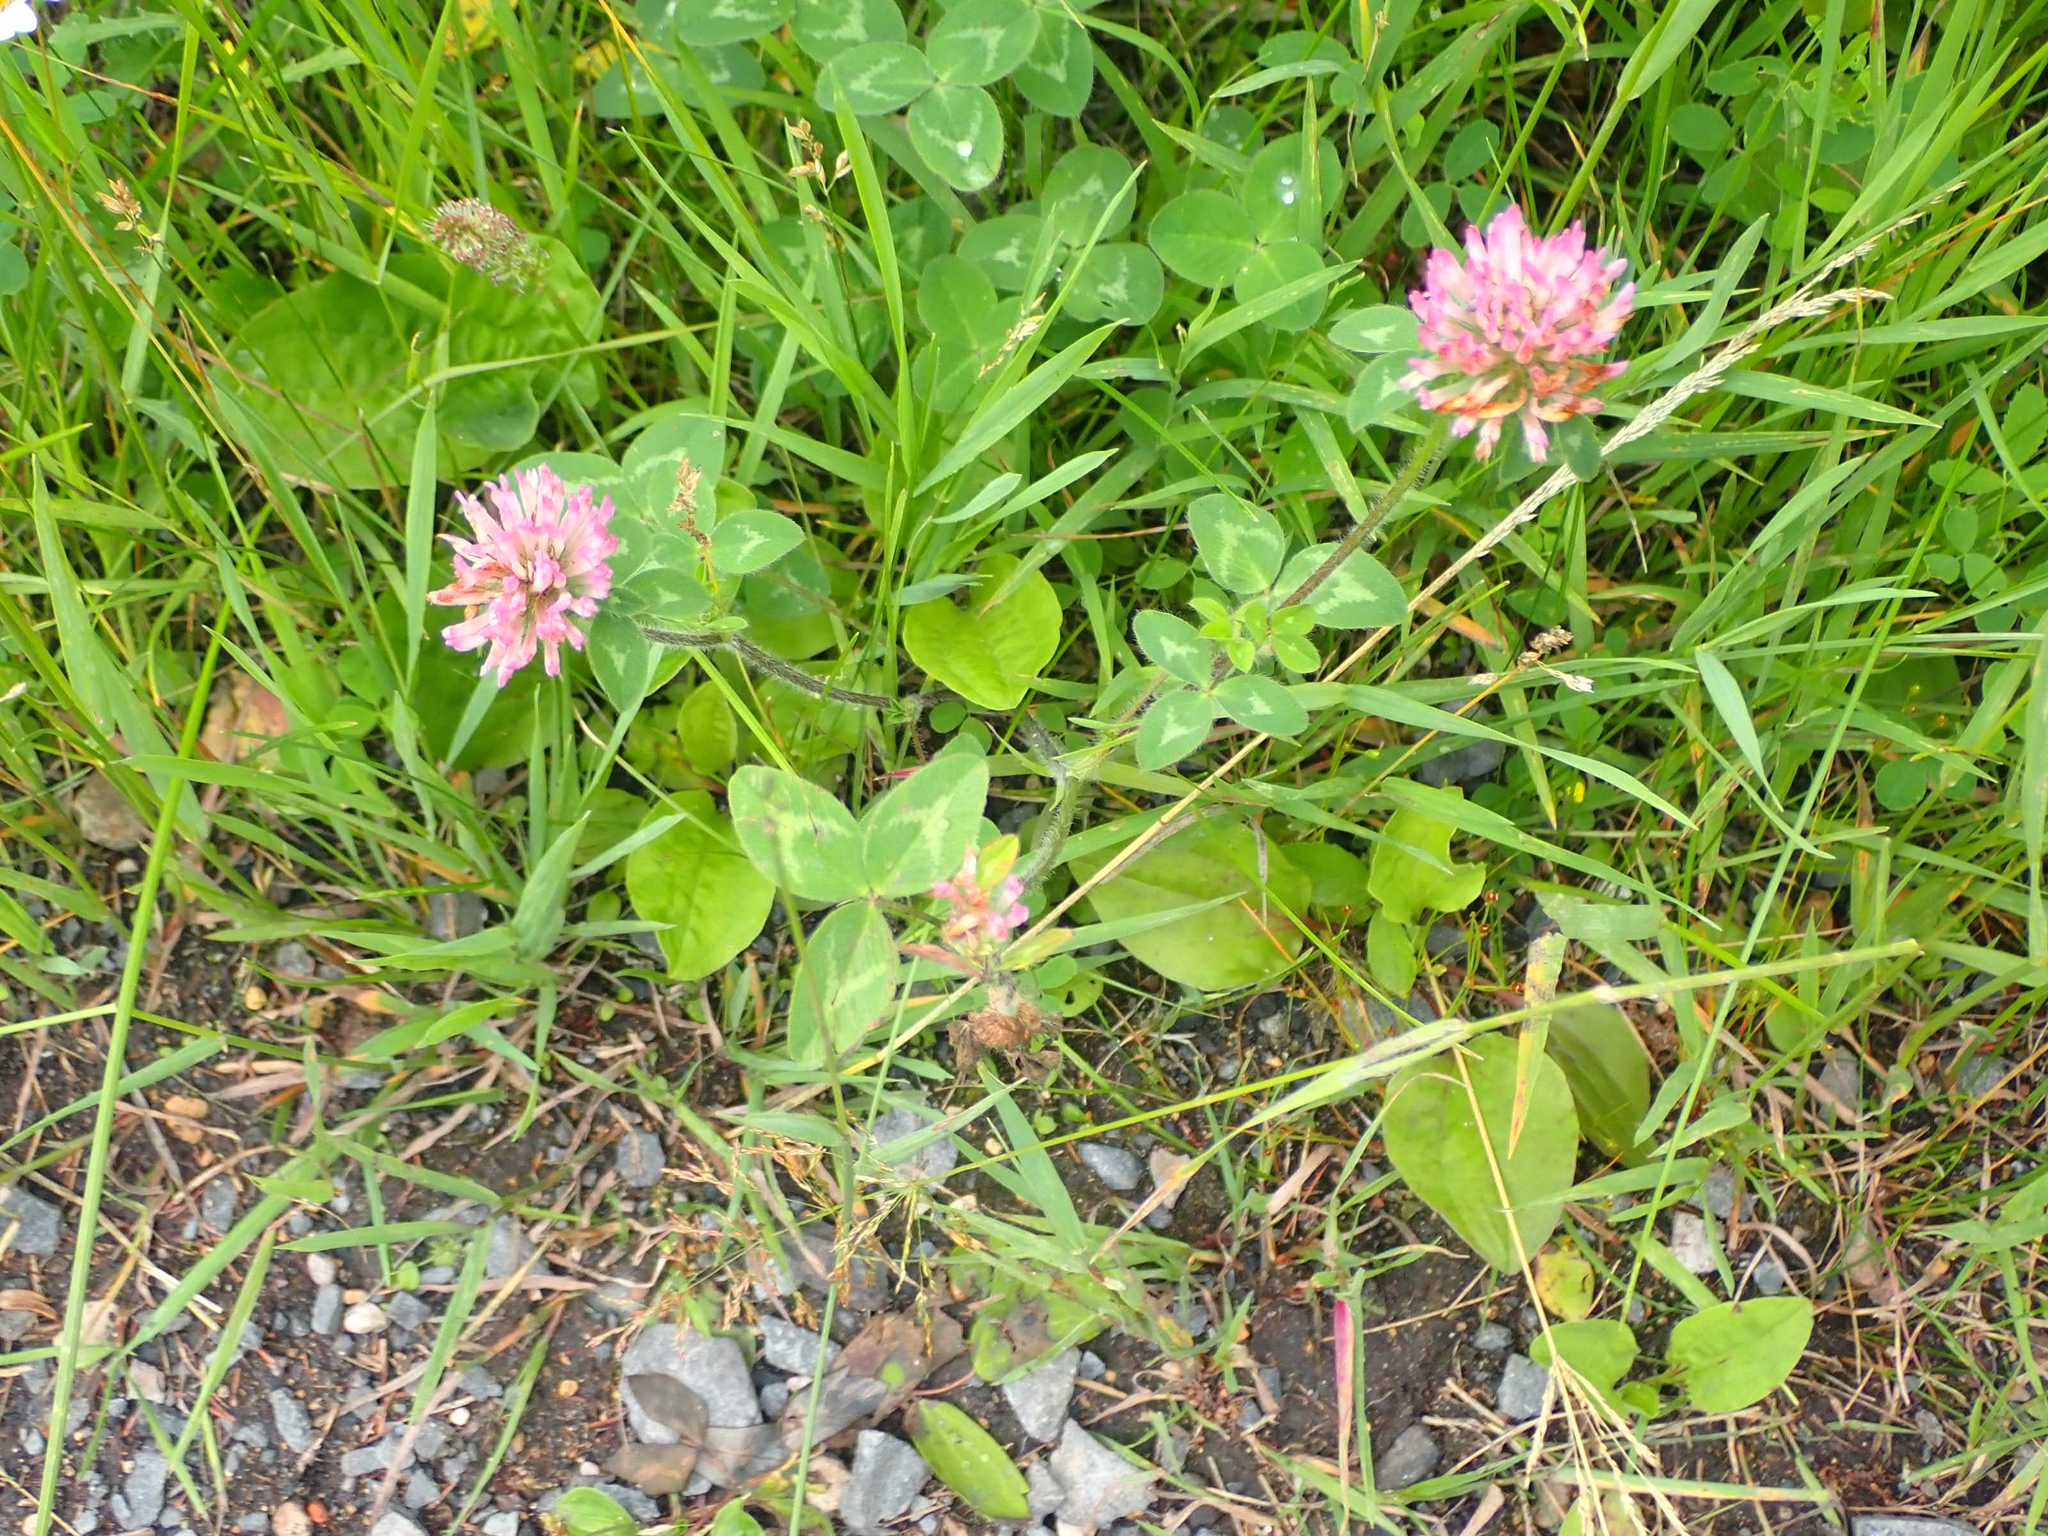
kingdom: Plantae
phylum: Tracheophyta
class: Magnoliopsida
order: Fabales
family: Fabaceae
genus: Trifolium
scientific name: Trifolium pratense
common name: Red clover
